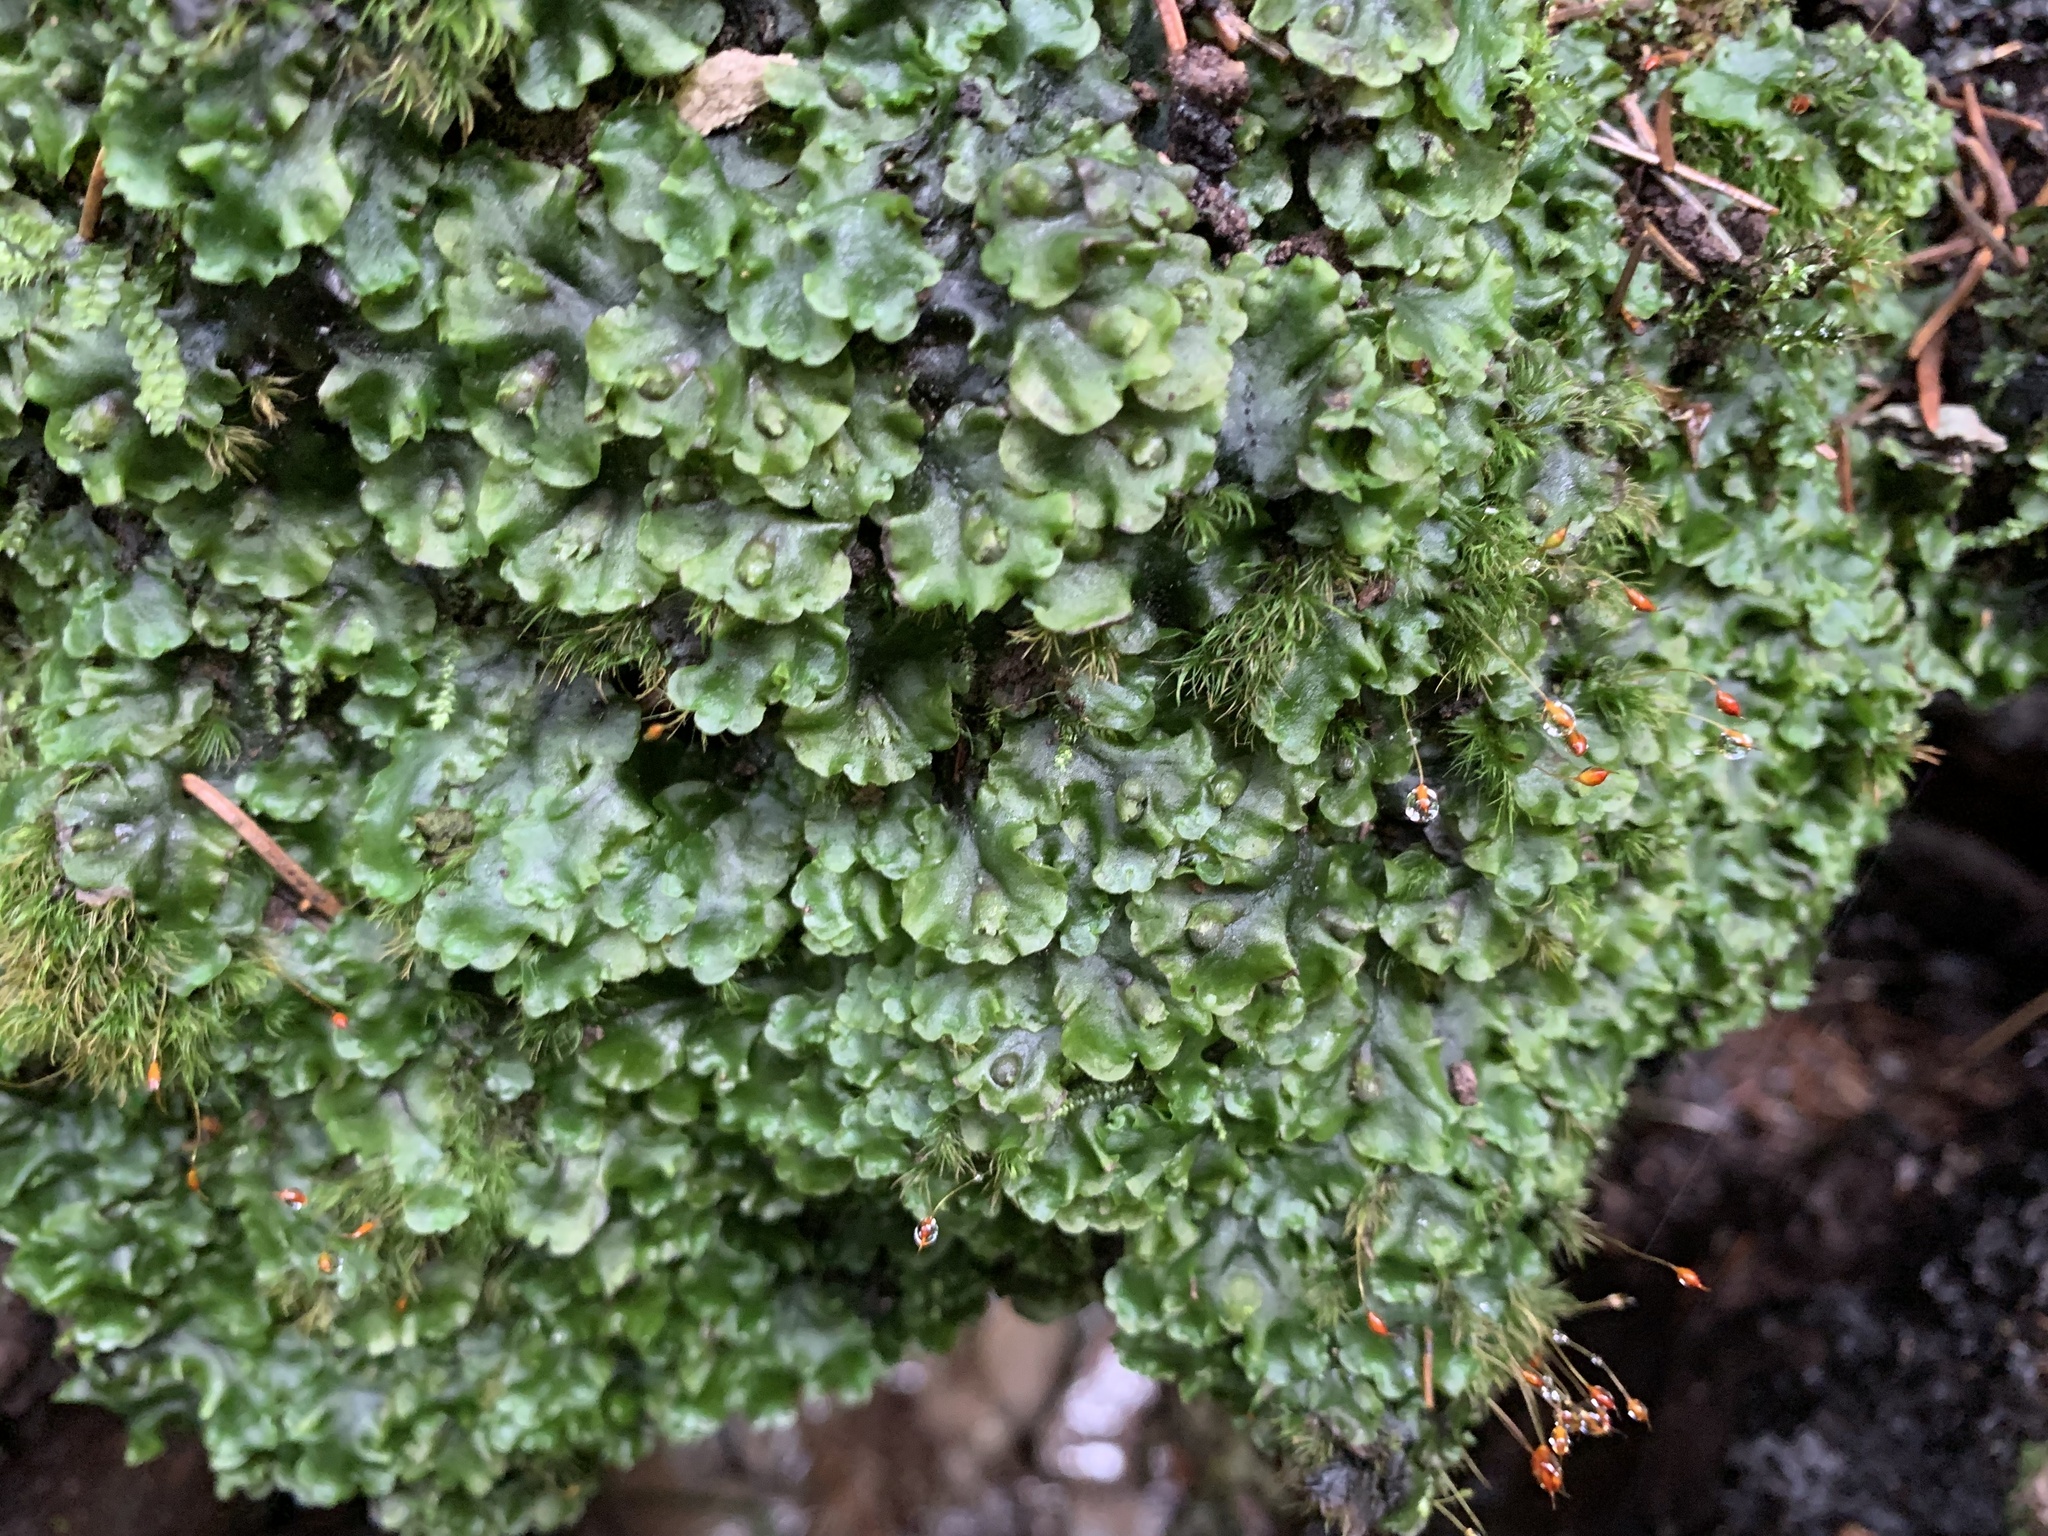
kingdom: Plantae
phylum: Marchantiophyta
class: Jungermanniopsida
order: Pelliales
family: Pelliaceae
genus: Pellia
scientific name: Pellia epiphylla
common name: Common pellia
